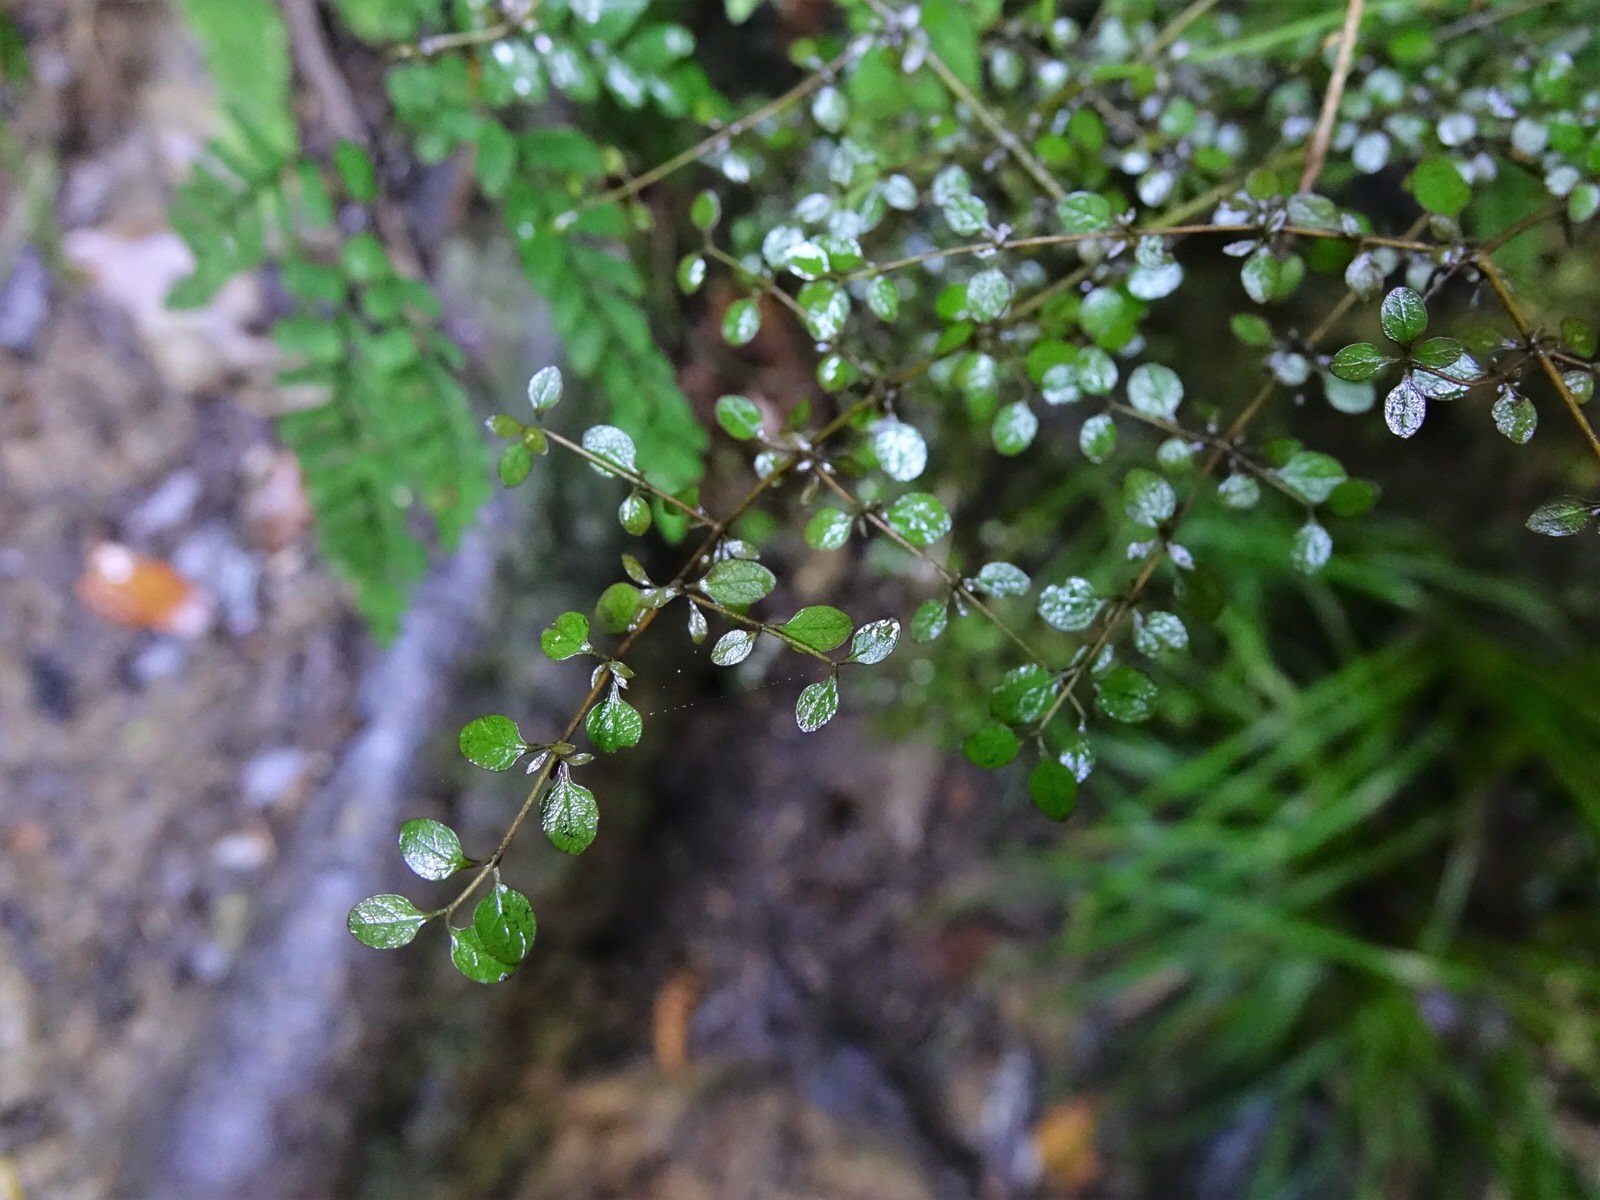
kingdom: Plantae
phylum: Tracheophyta
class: Magnoliopsida
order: Gentianales
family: Rubiaceae
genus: Coprosma
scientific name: Coprosma rhamnoides
